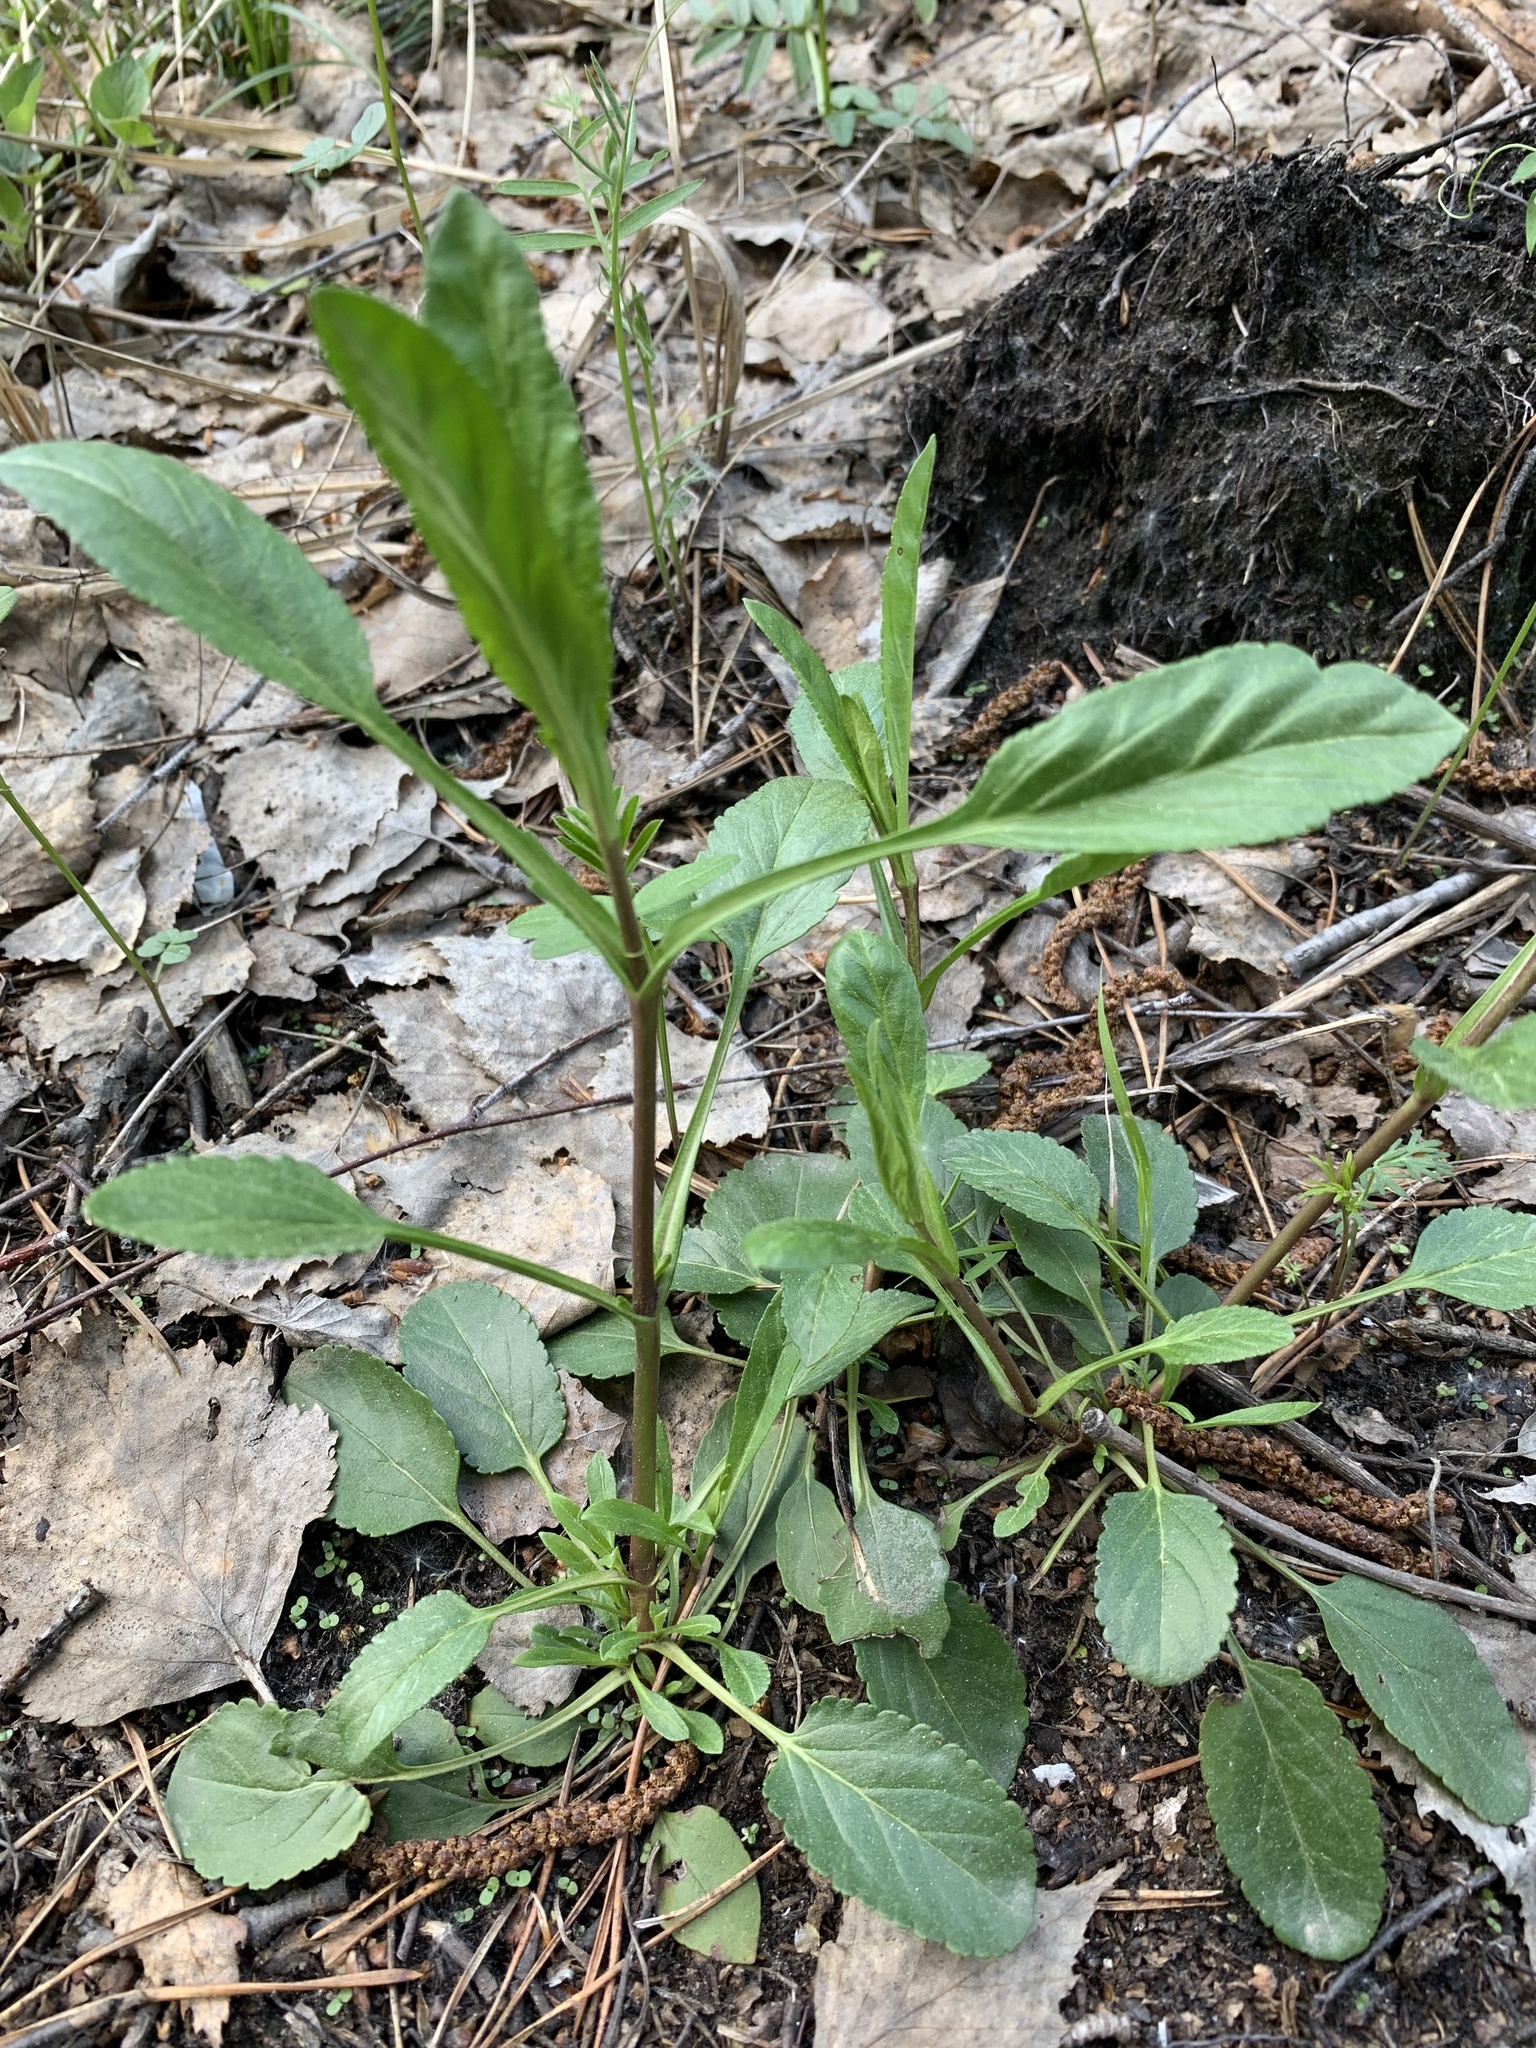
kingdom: Plantae
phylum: Tracheophyta
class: Magnoliopsida
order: Lamiales
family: Plantaginaceae
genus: Veronica
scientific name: Veronica spicata
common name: Spiked speedwell
